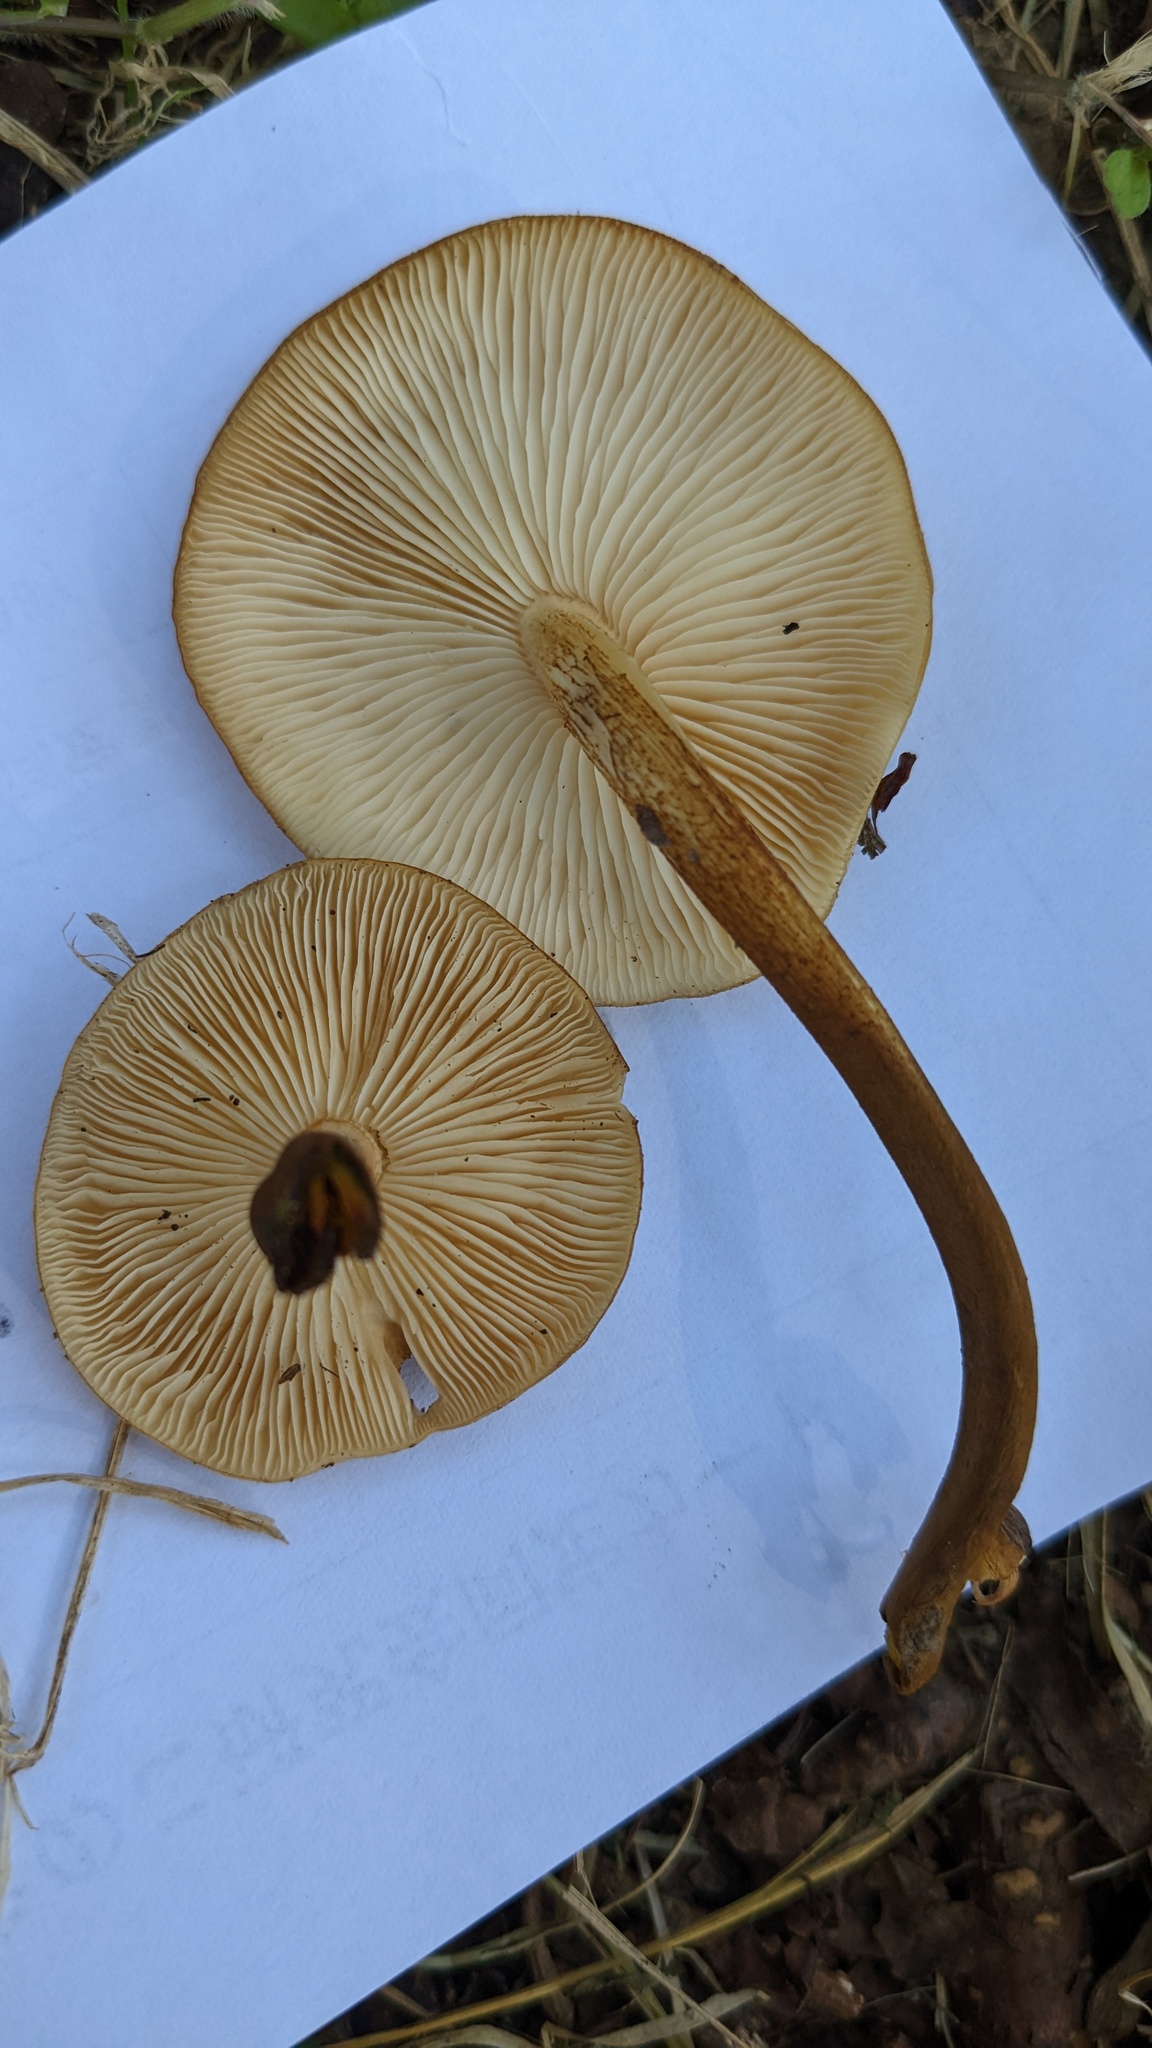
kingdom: Fungi
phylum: Basidiomycota
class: Agaricomycetes
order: Agaricales
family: Physalacriaceae
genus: Flammulina
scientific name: Flammulina velutipes
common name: Velvet shank
